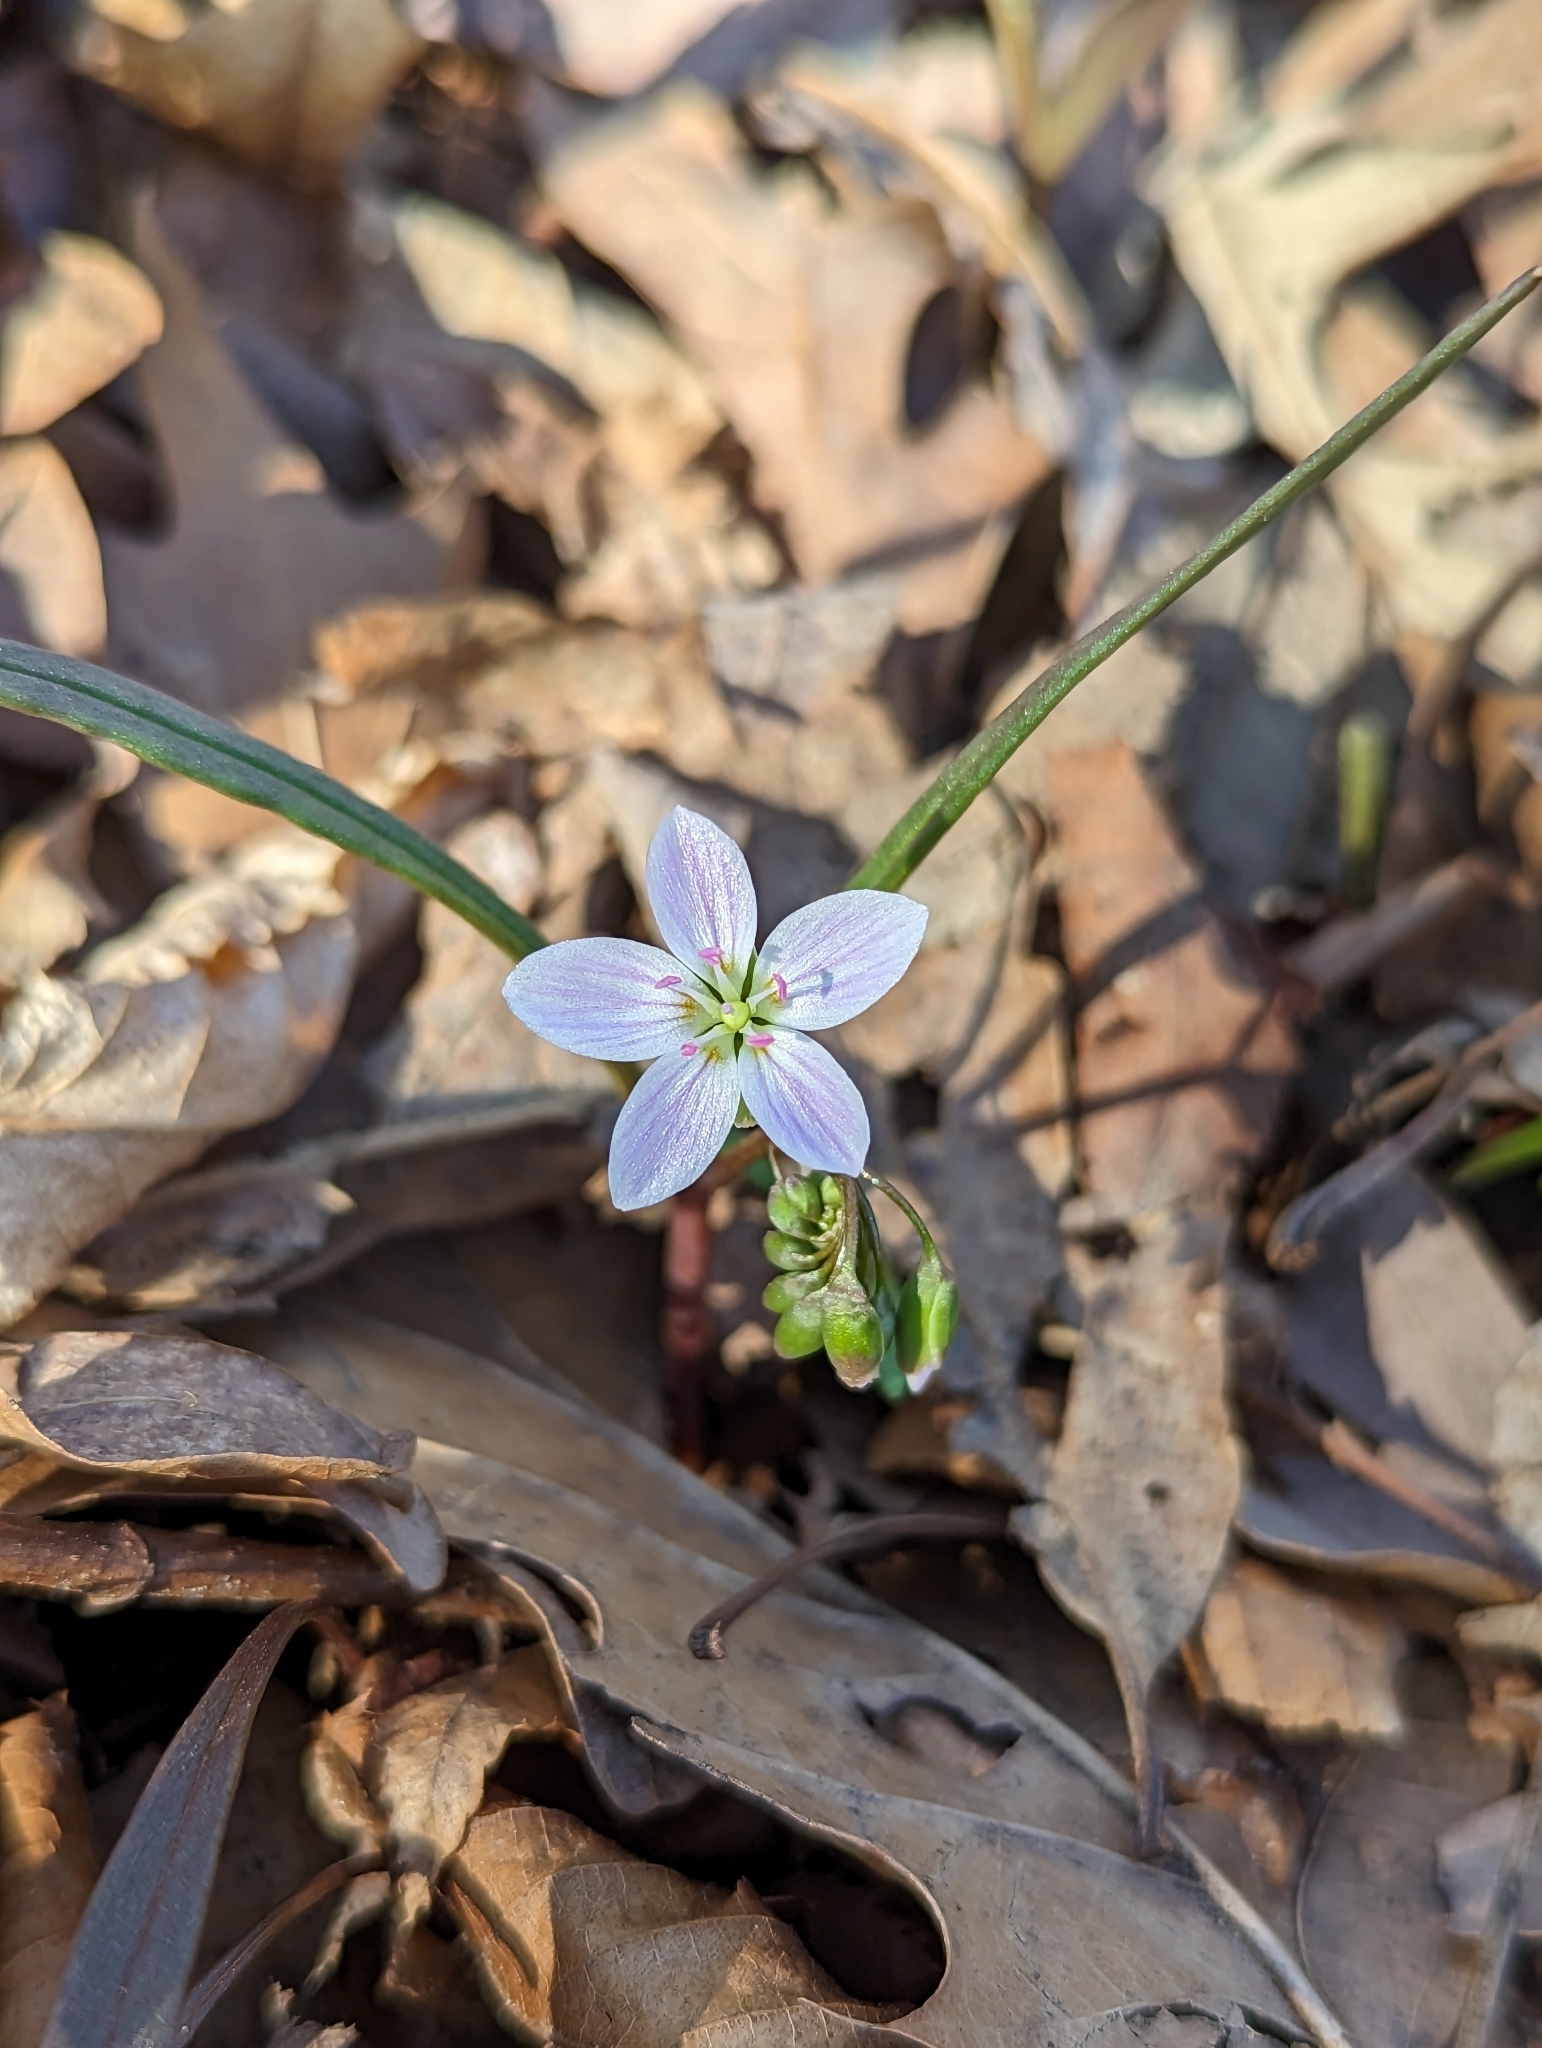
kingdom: Plantae
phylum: Tracheophyta
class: Magnoliopsida
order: Caryophyllales
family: Montiaceae
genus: Claytonia
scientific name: Claytonia virginica
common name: Virginia springbeauty
